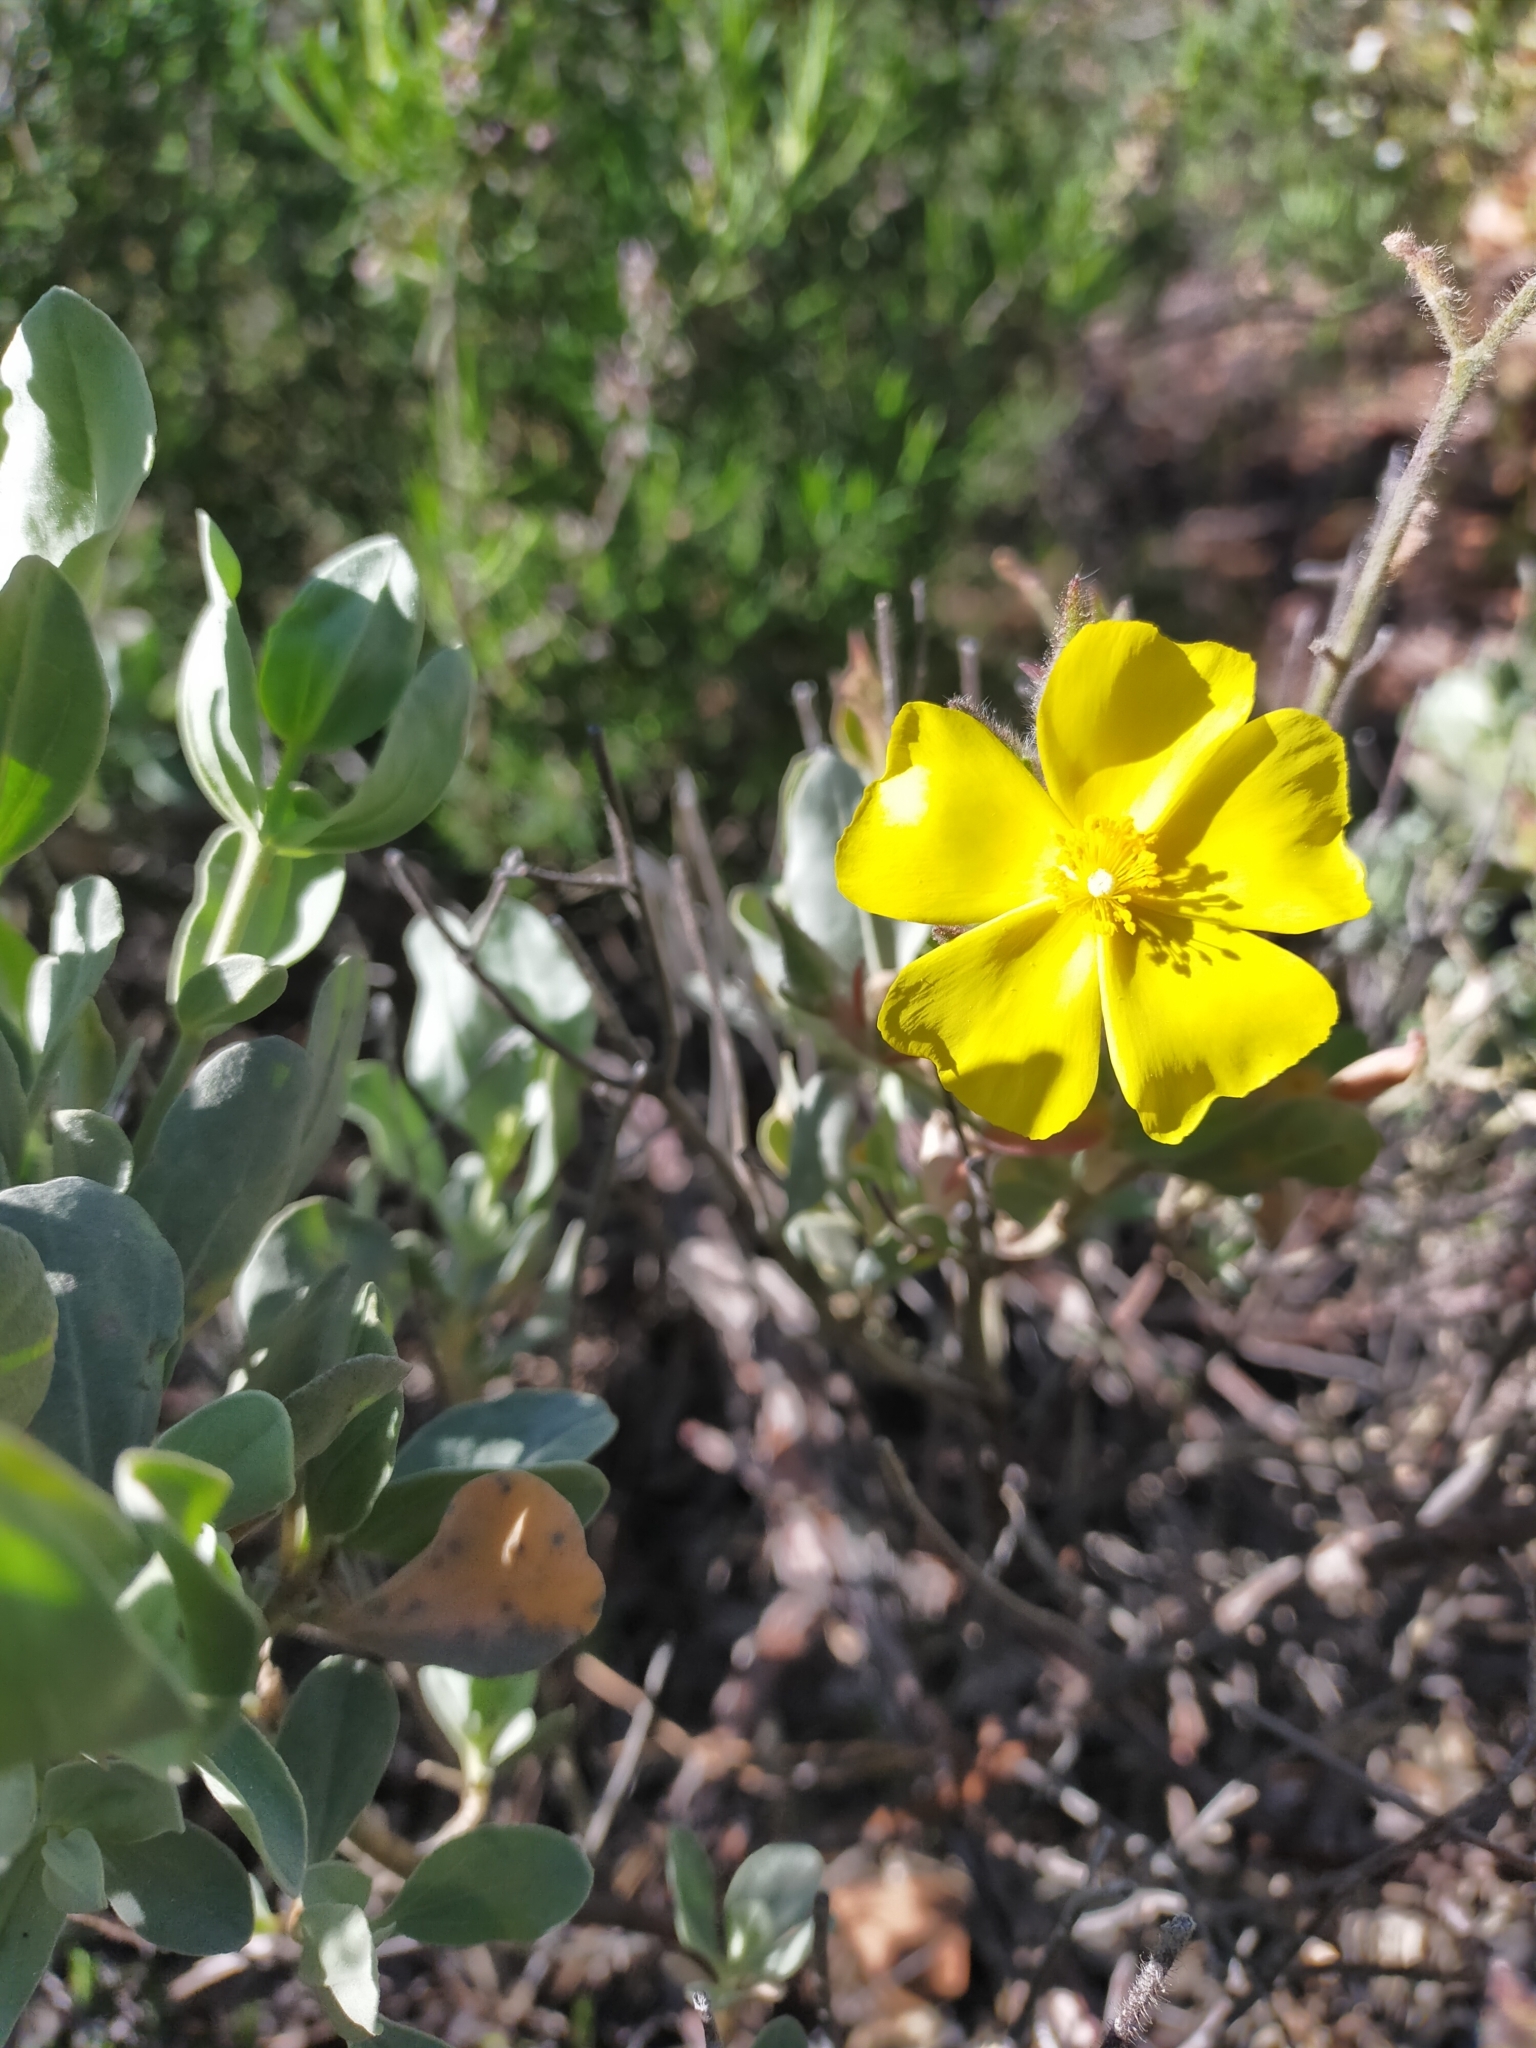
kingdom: Plantae
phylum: Tracheophyta
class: Magnoliopsida
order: Malvales
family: Cistaceae
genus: Halimium
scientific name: Halimium atriplicifolium
